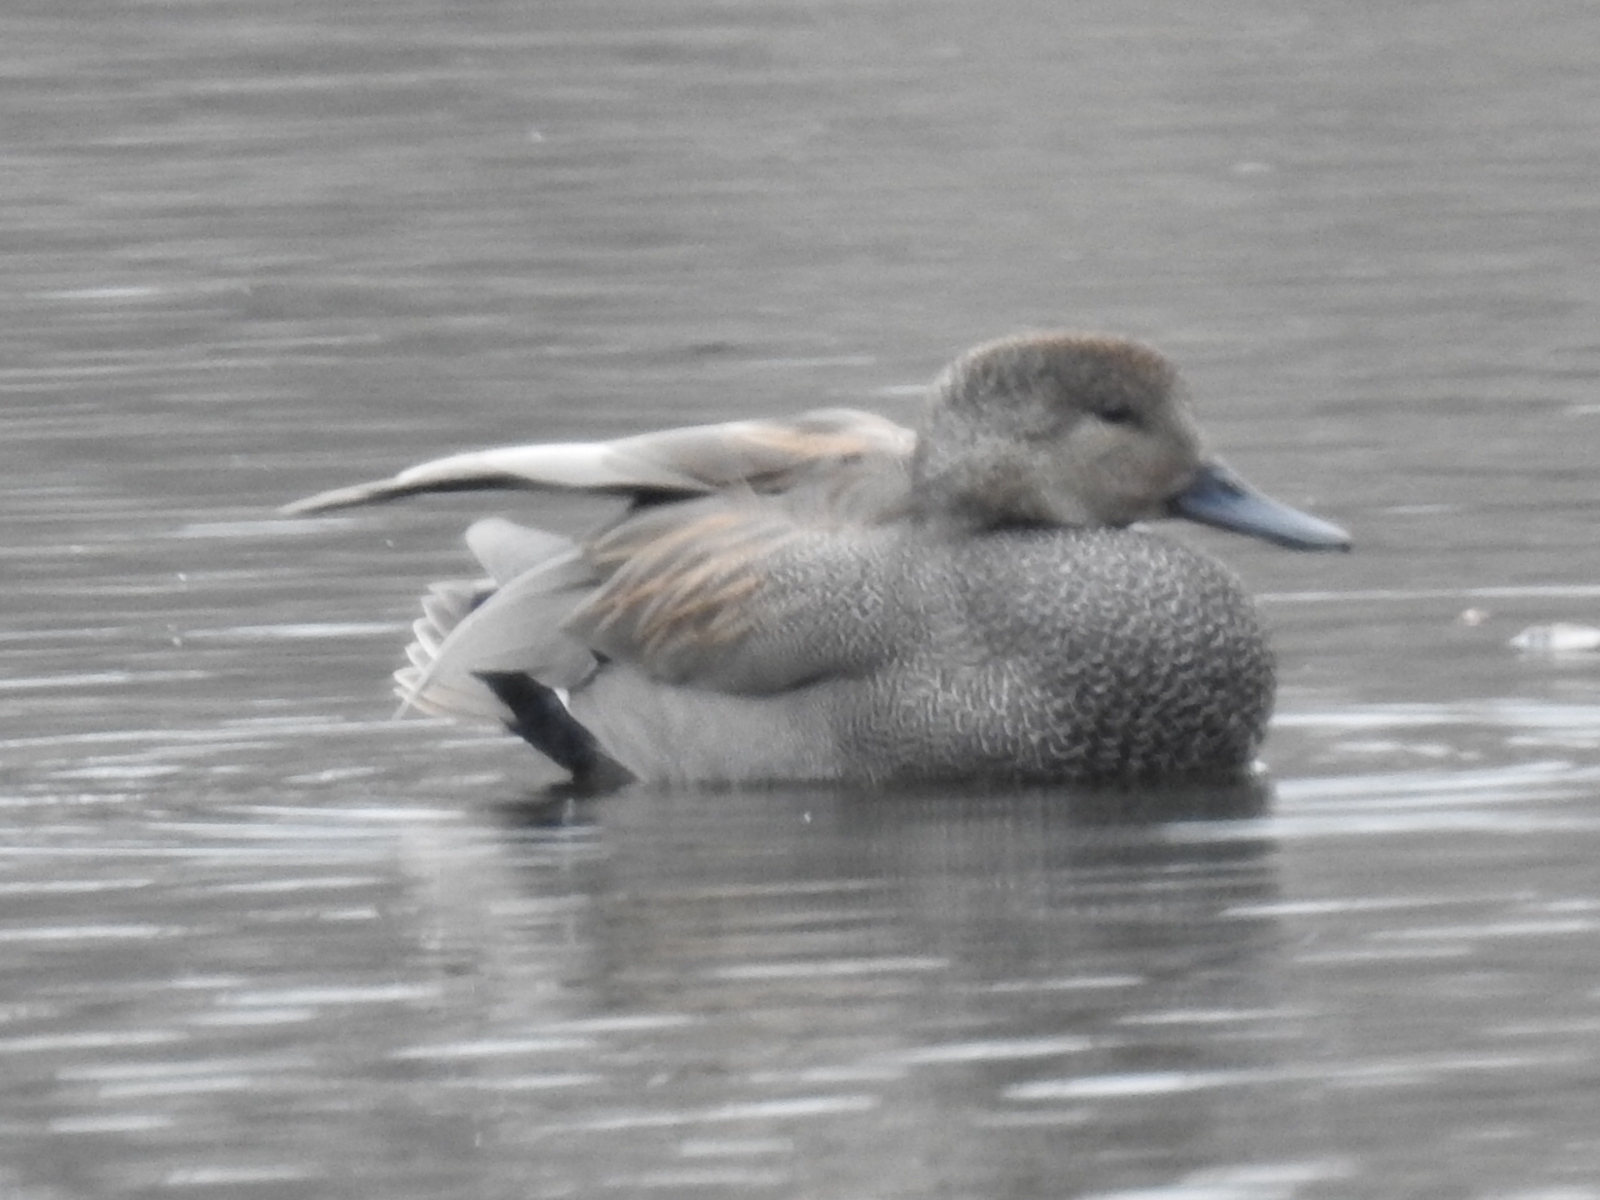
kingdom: Animalia
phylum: Chordata
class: Aves
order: Anseriformes
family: Anatidae
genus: Mareca
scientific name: Mareca strepera
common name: Gadwall
